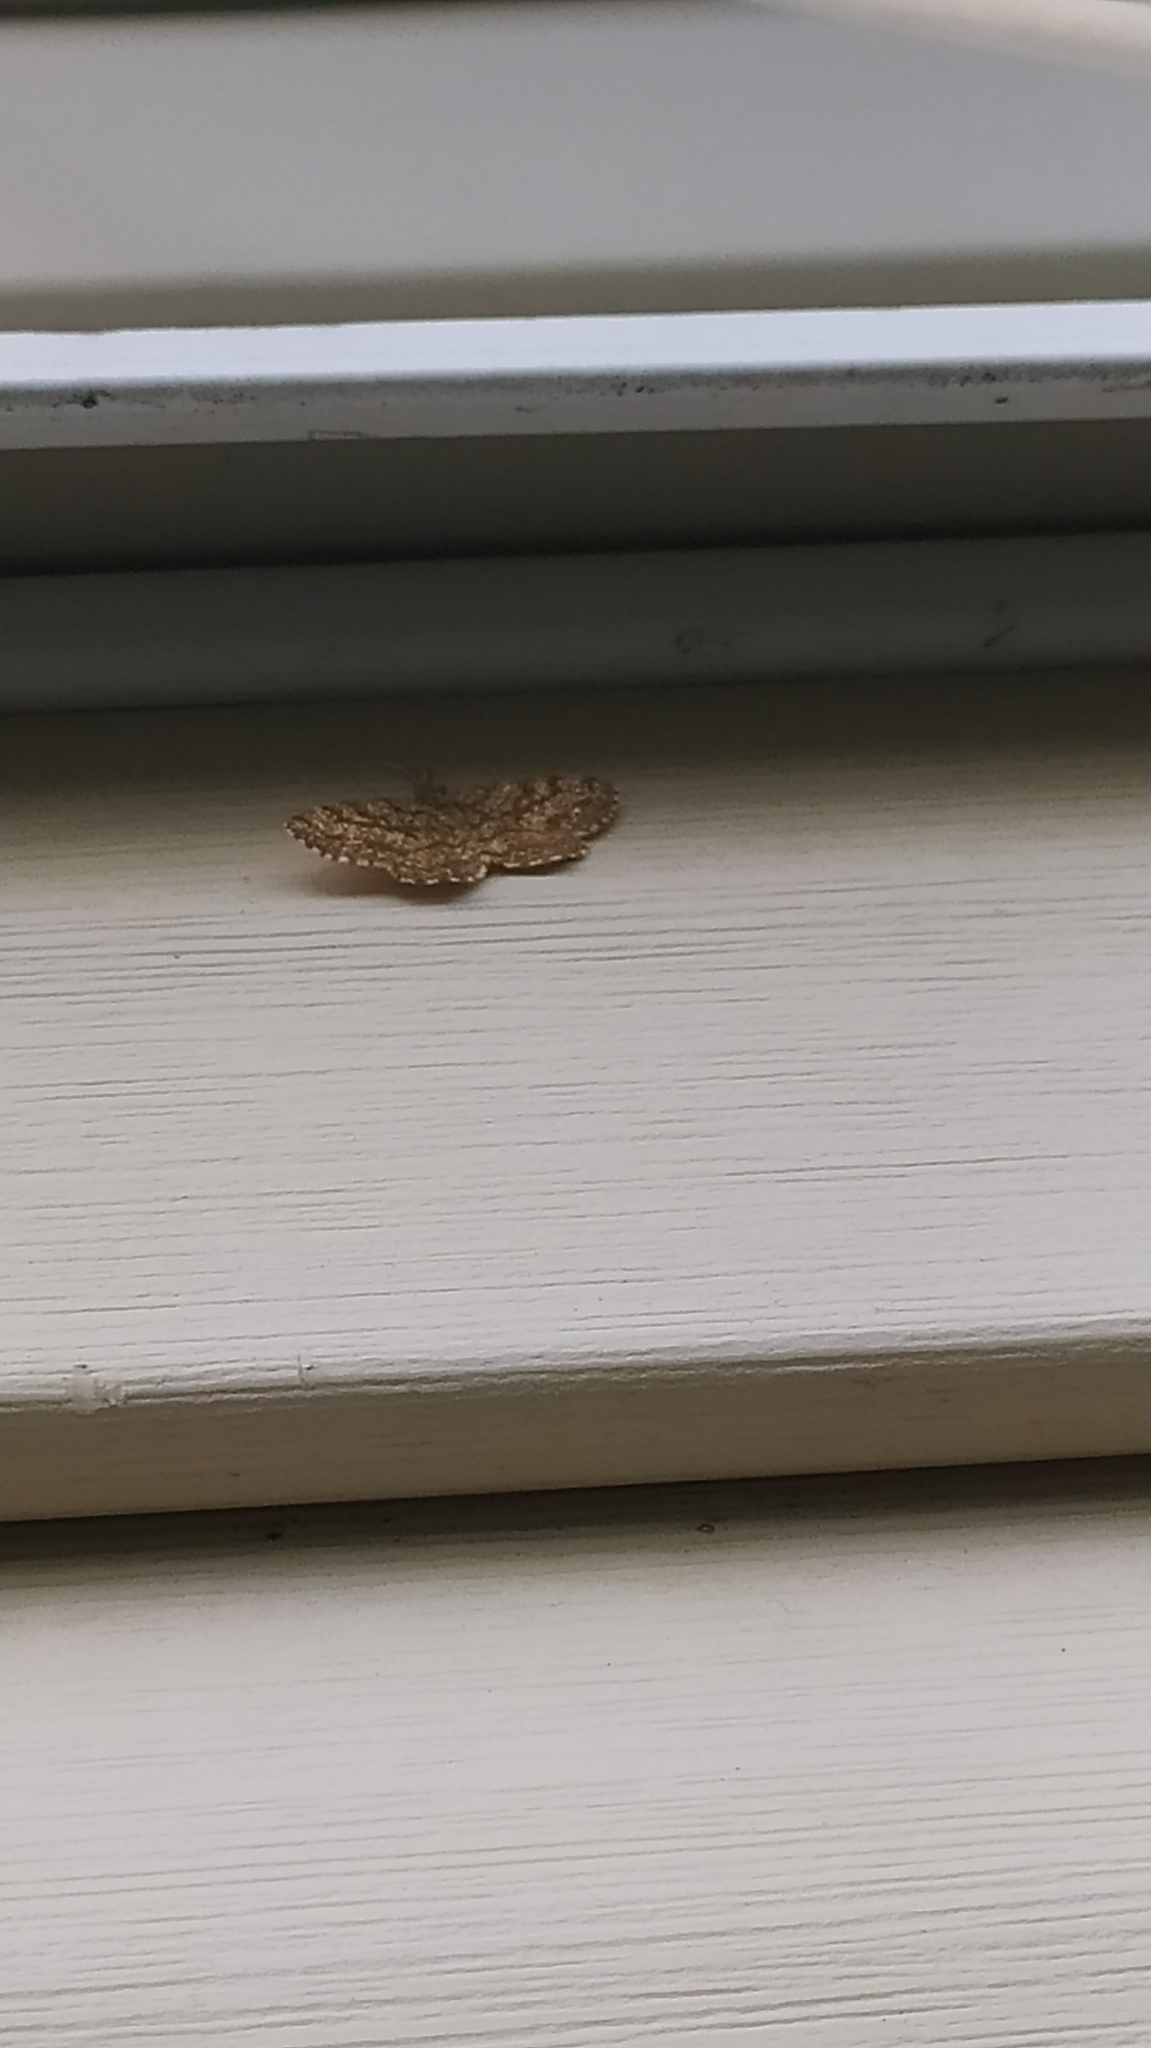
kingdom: Animalia
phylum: Arthropoda
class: Insecta
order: Lepidoptera
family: Geometridae
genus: Ematurga
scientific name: Ematurga atomaria
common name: Common heath
